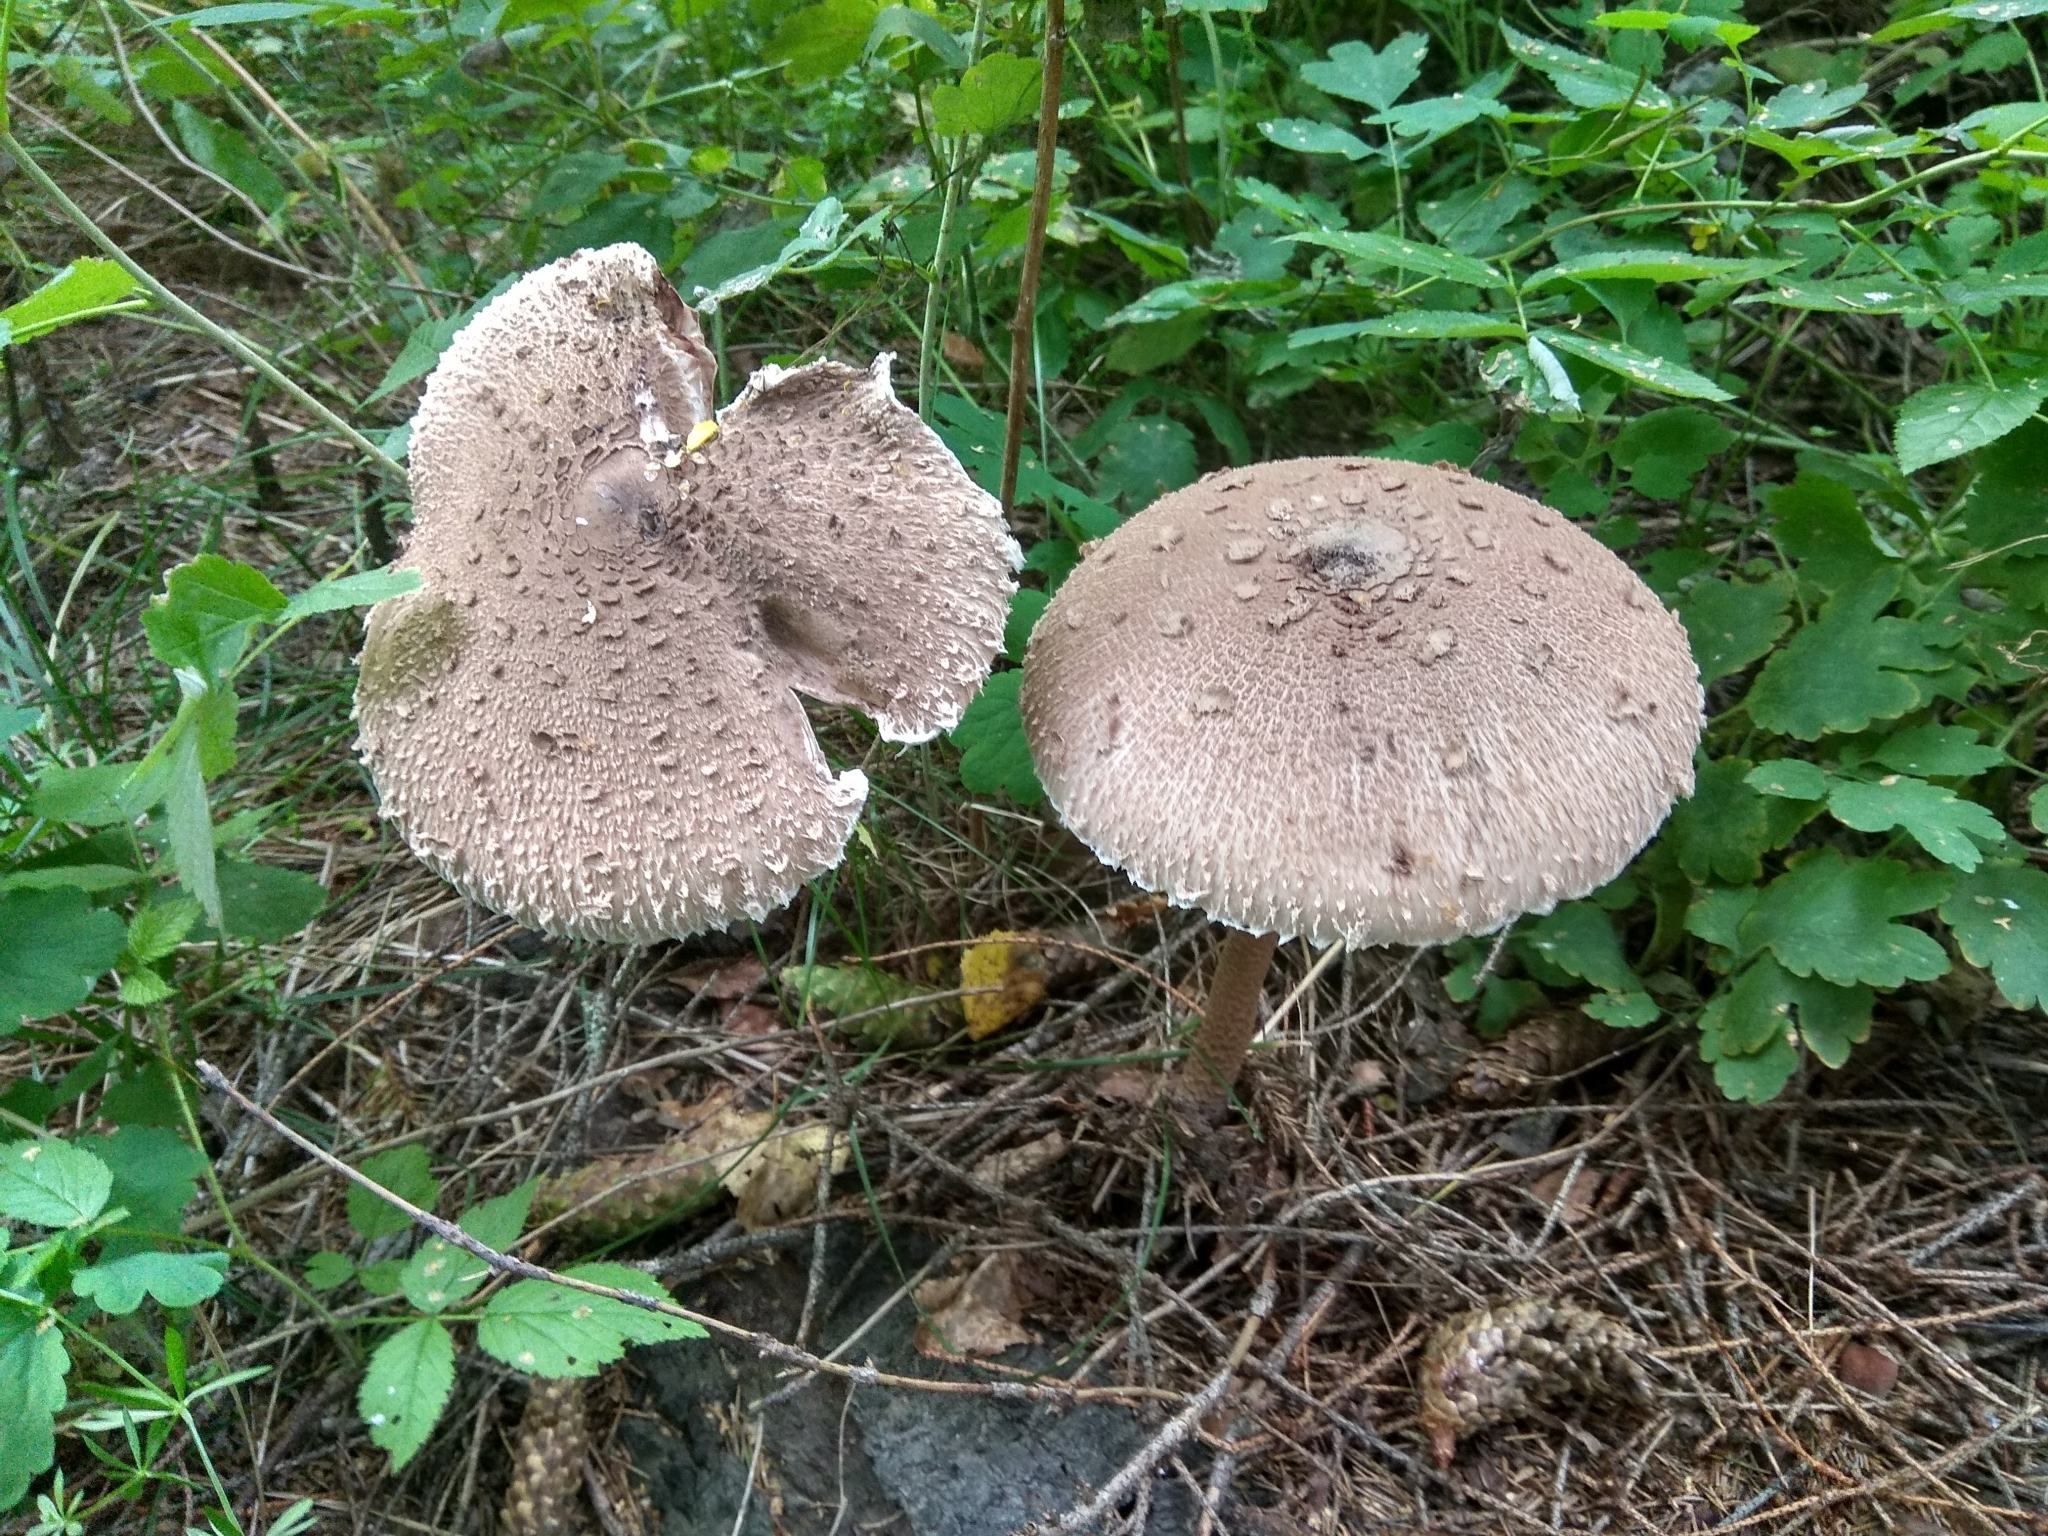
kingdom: Fungi
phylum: Basidiomycota
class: Agaricomycetes
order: Agaricales
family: Agaricaceae
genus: Macrolepiota
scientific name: Macrolepiota procera
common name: Parasol
